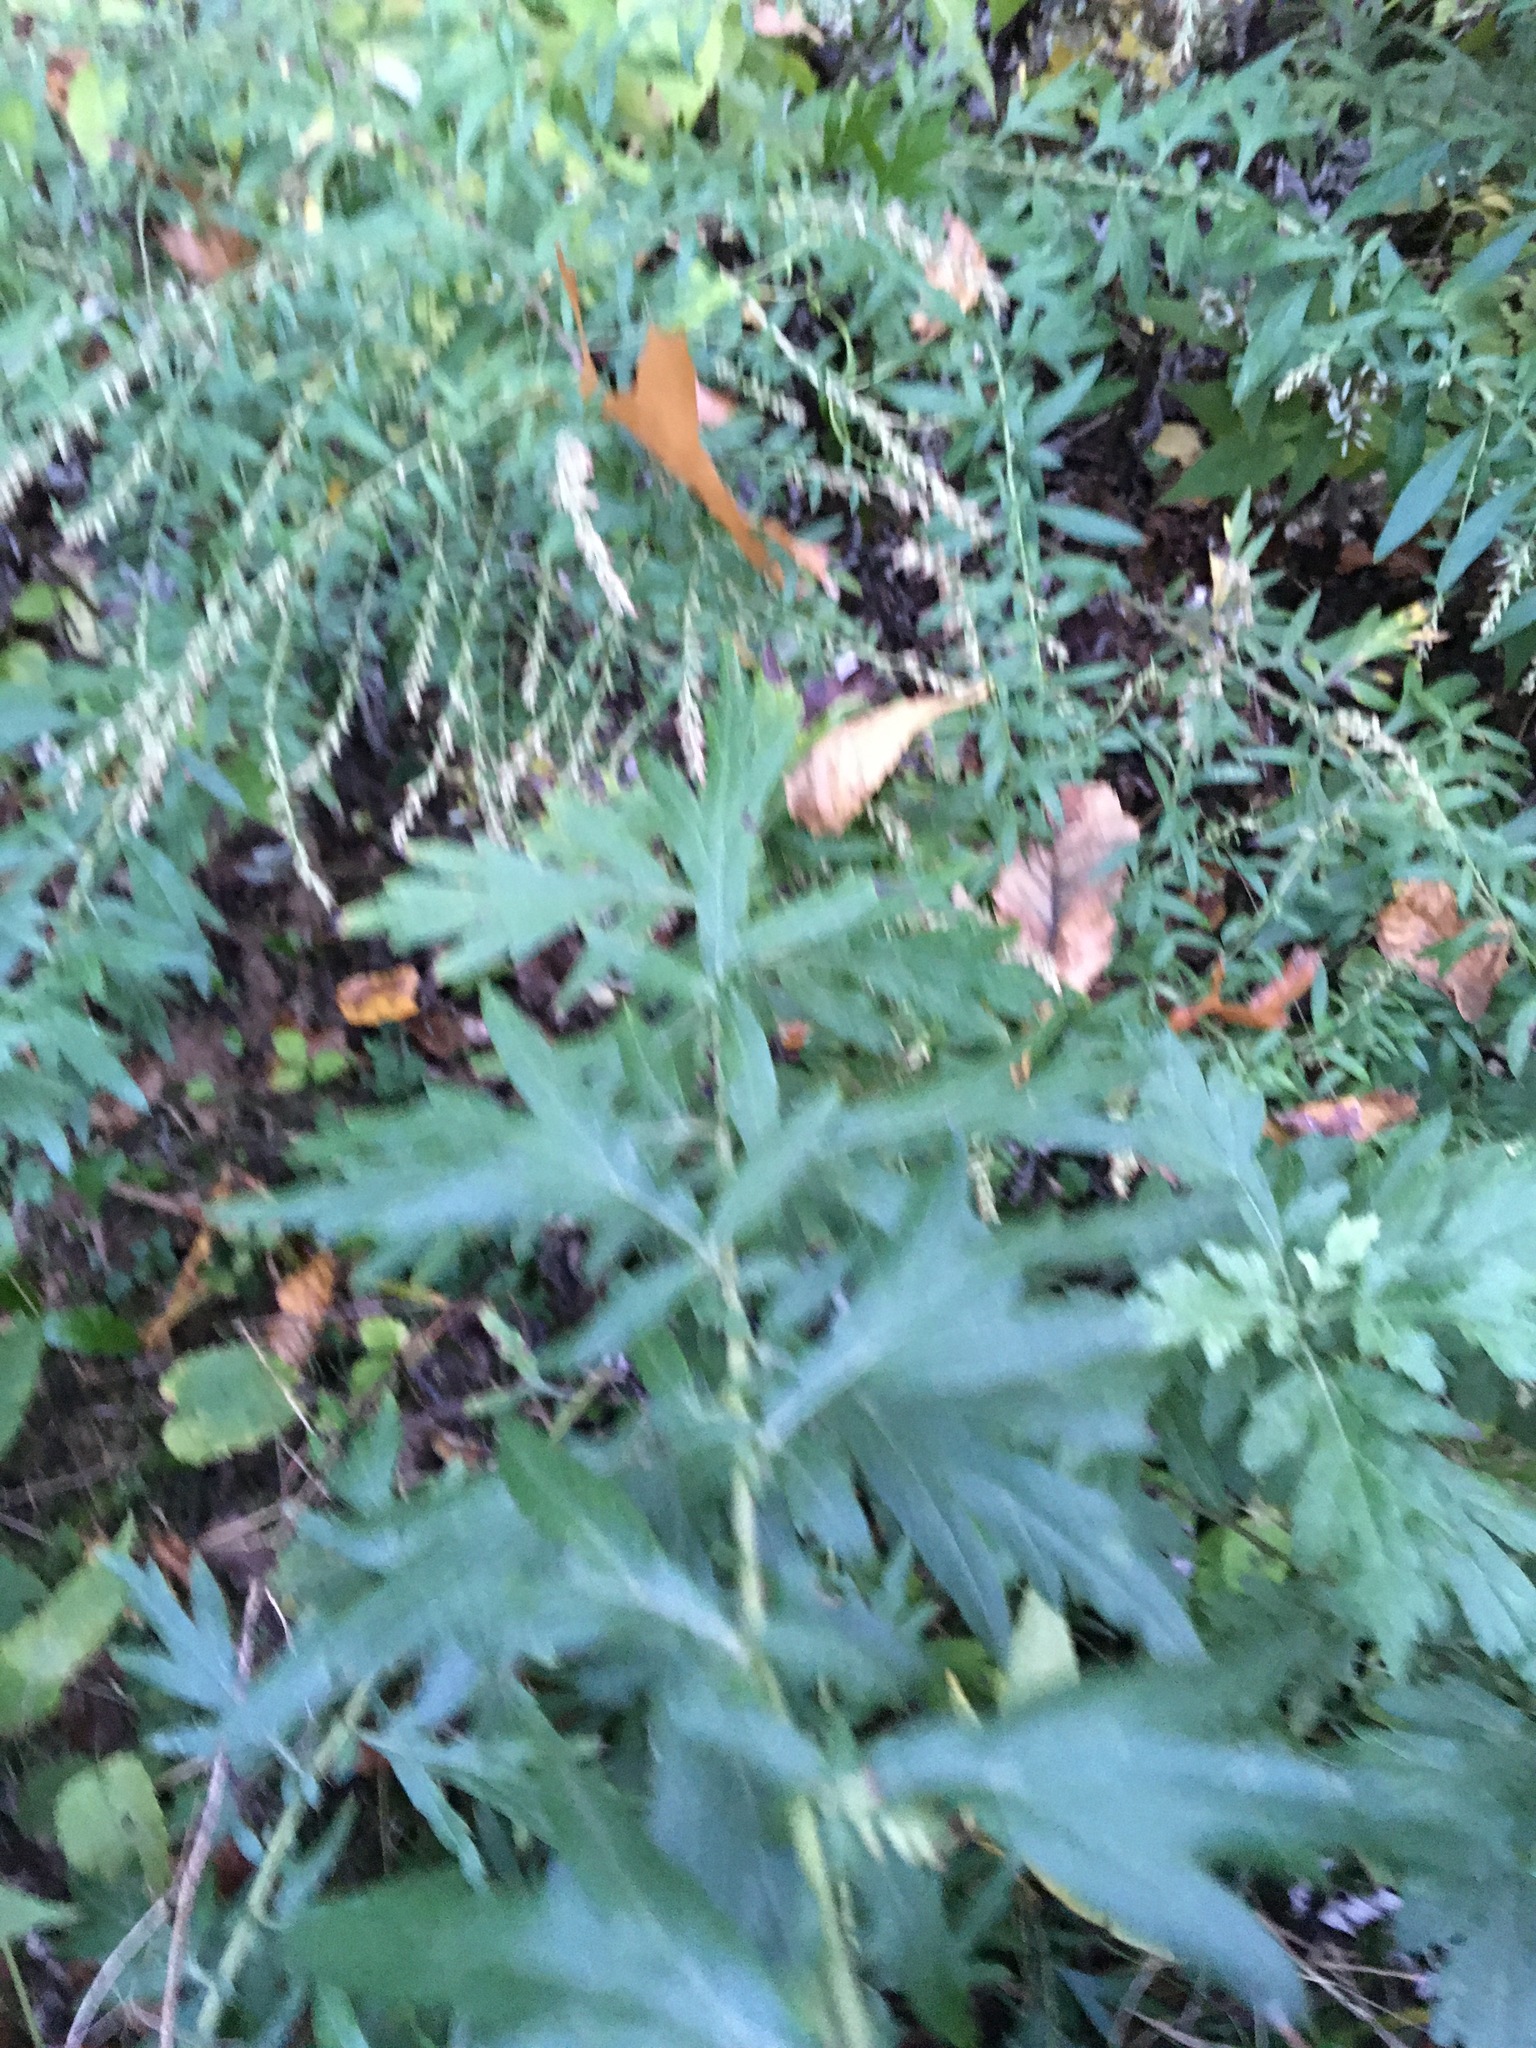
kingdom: Plantae
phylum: Tracheophyta
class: Magnoliopsida
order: Asterales
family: Asteraceae
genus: Artemisia
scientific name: Artemisia vulgaris
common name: Mugwort
